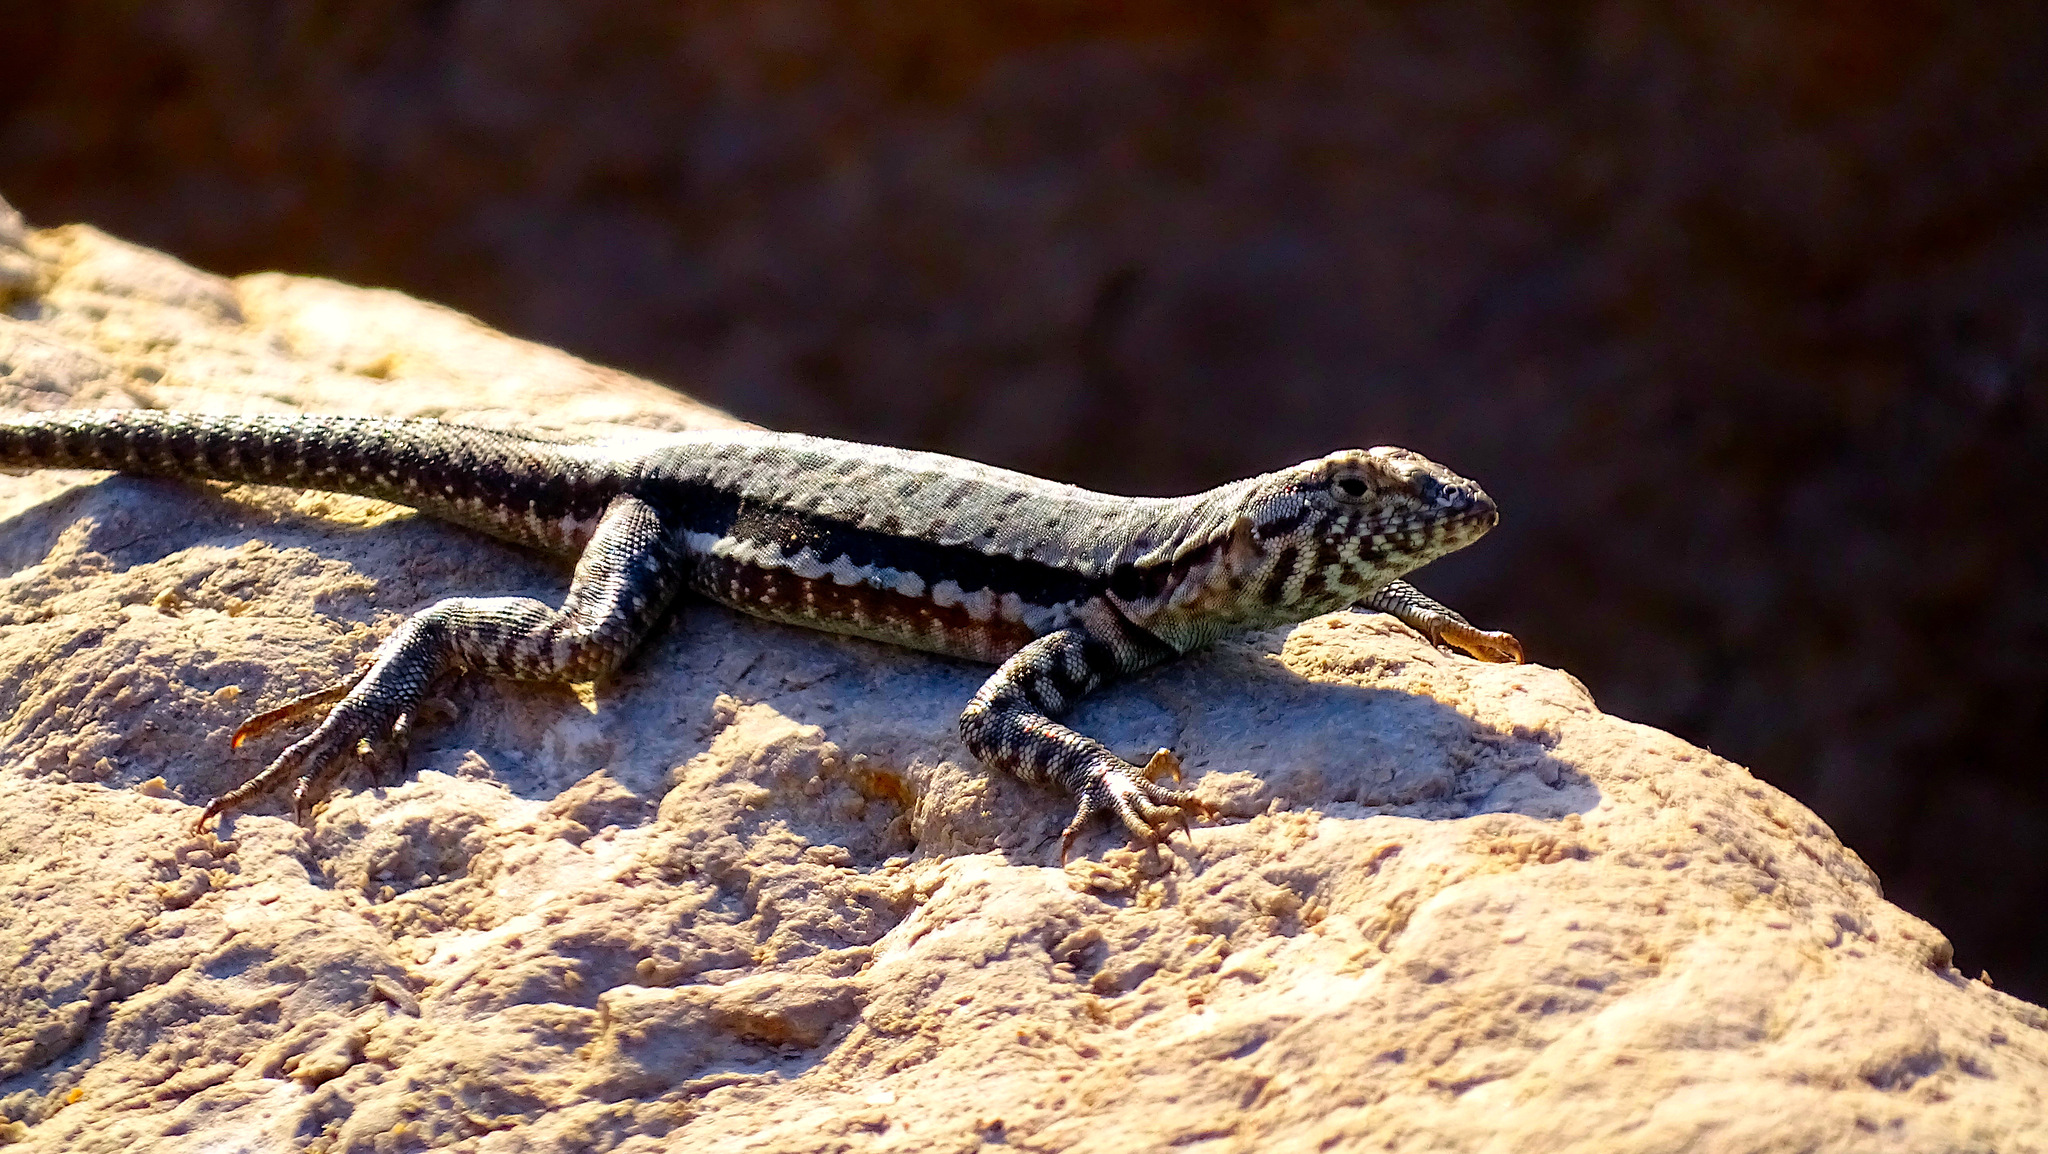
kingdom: Animalia
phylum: Chordata
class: Squamata
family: Tropiduridae
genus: Microlophus
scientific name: Microlophus atacamensis
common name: Atacamen pacific iguana
